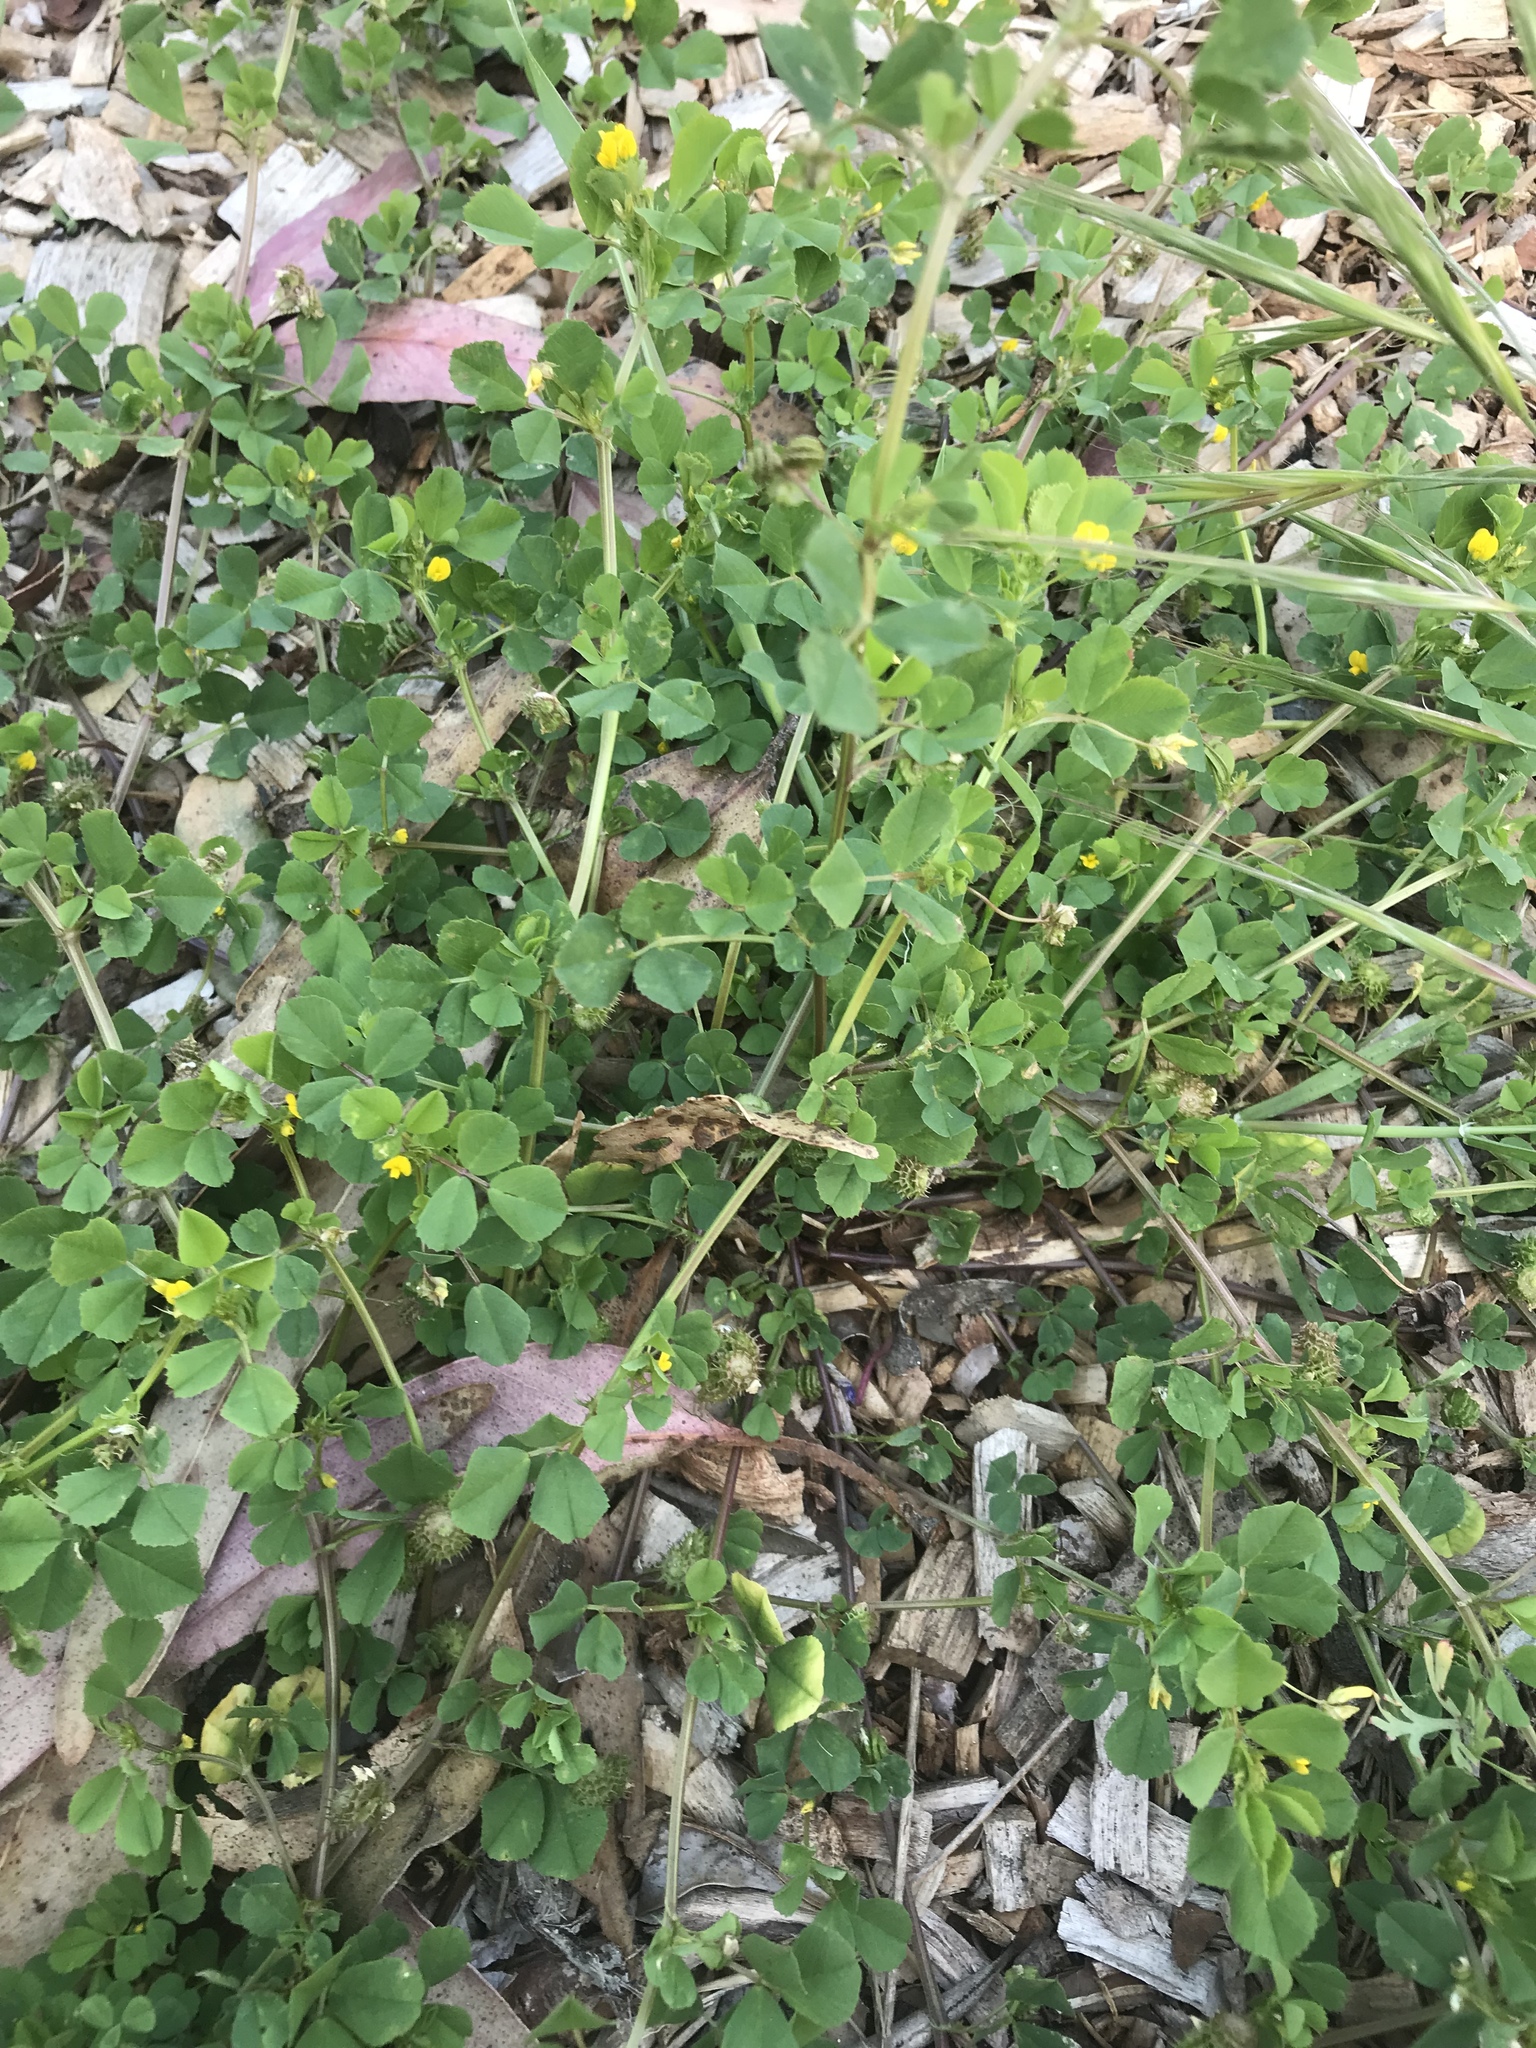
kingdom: Plantae
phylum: Tracheophyta
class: Magnoliopsida
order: Fabales
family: Fabaceae
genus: Medicago
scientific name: Medicago polymorpha
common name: Burclover
